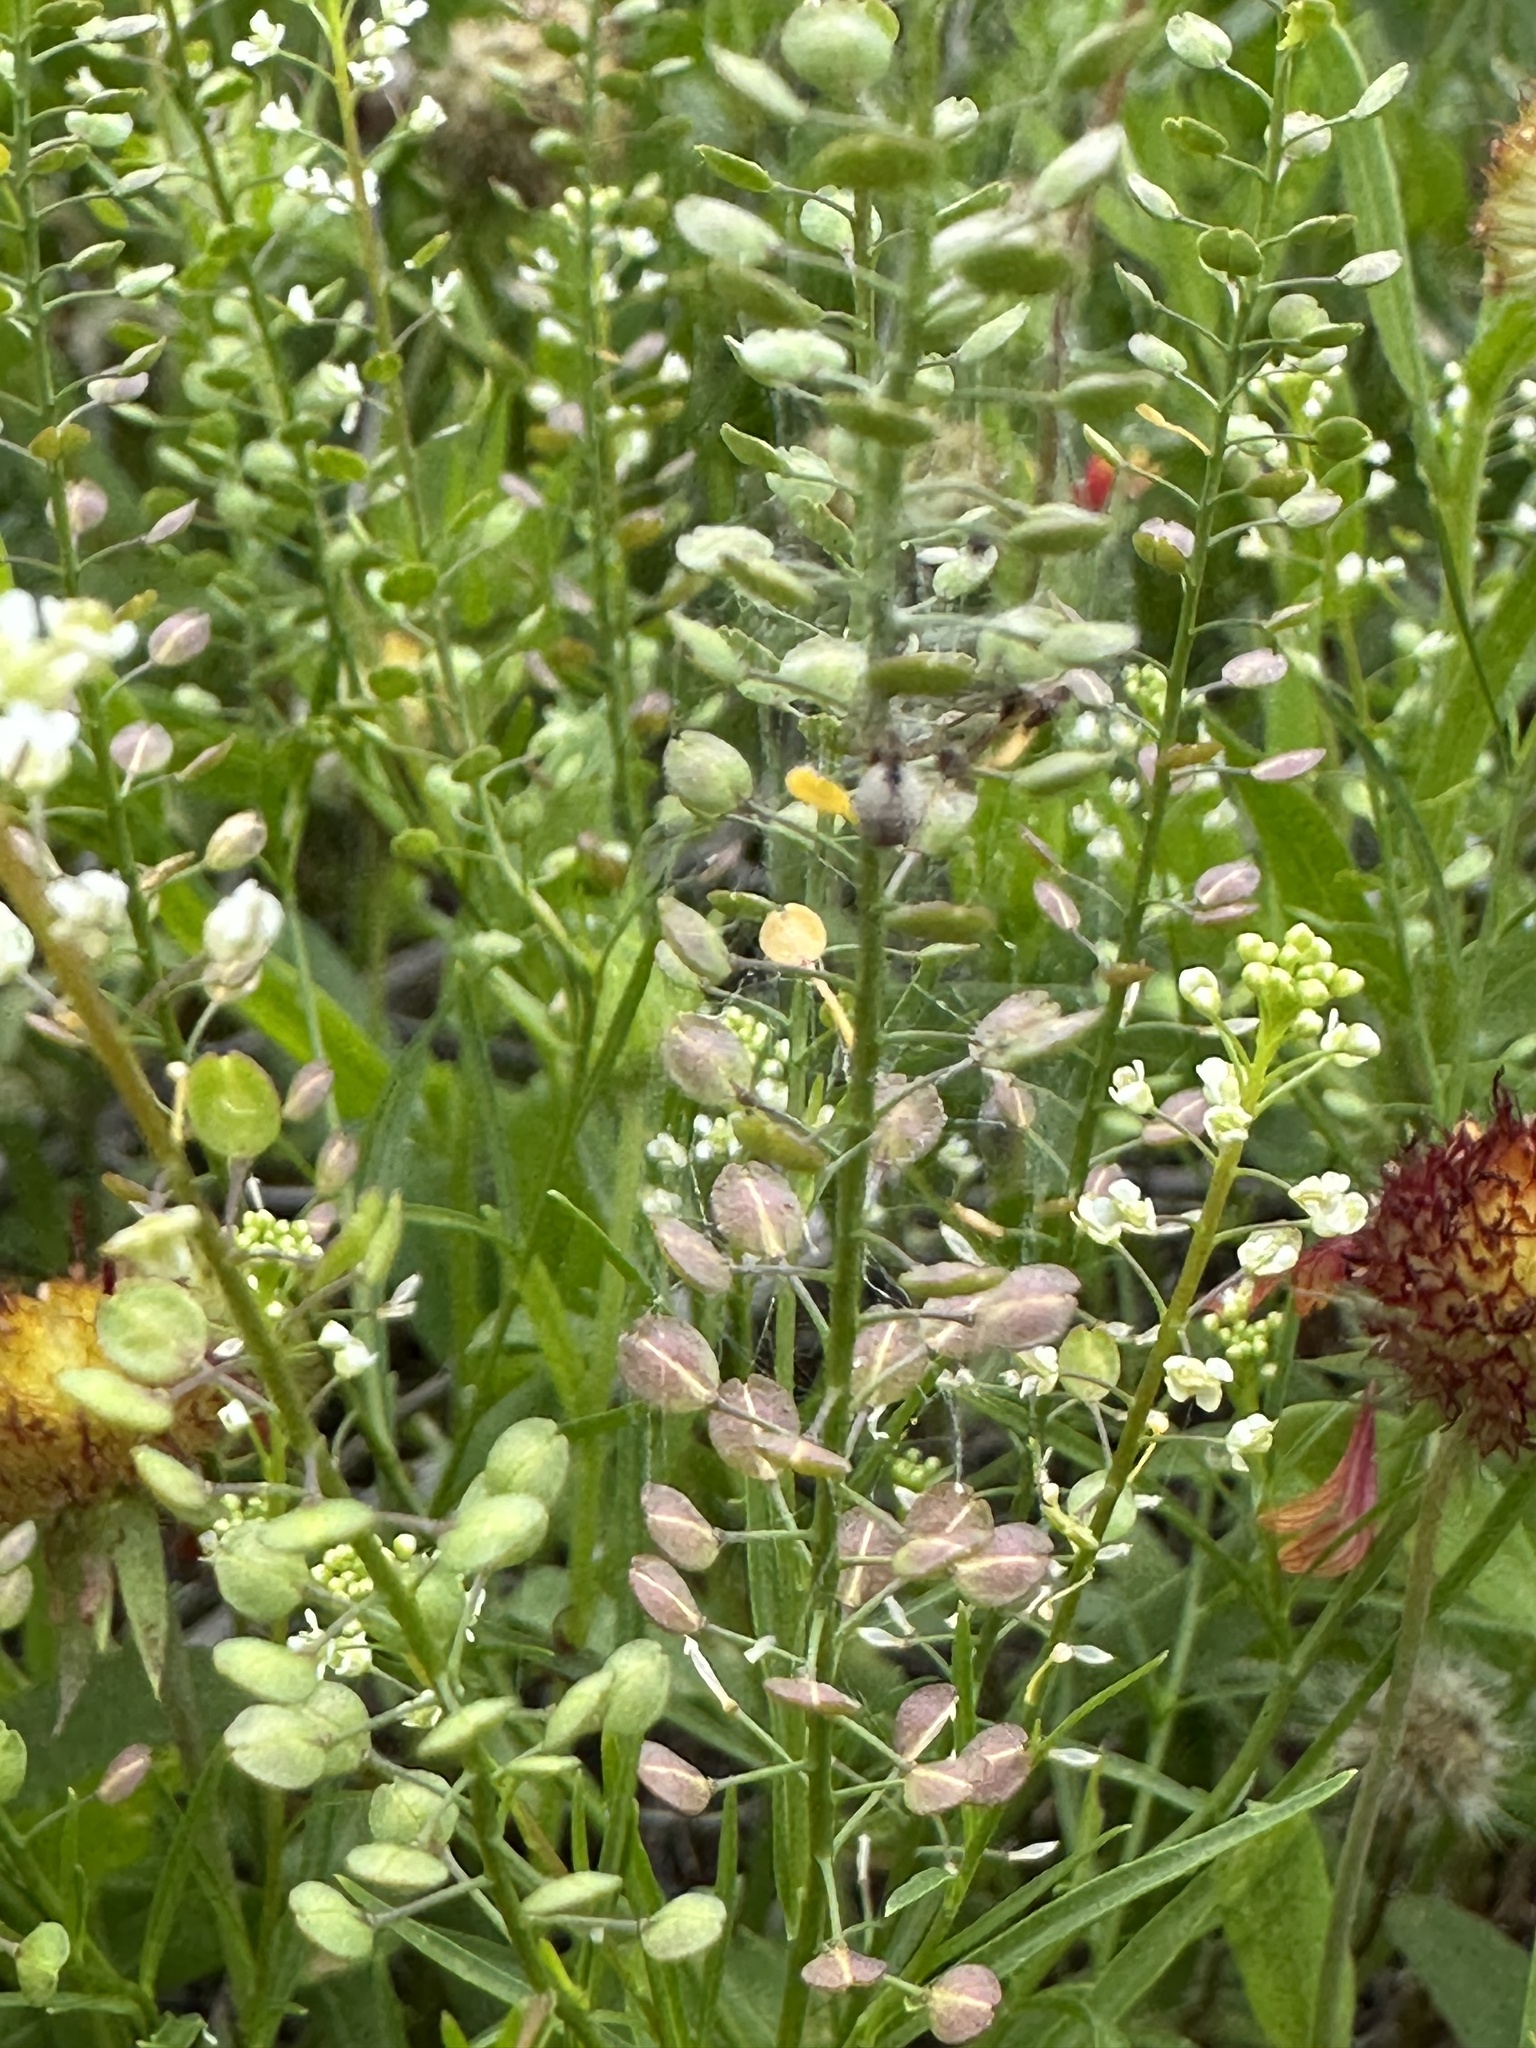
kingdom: Plantae
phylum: Tracheophyta
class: Magnoliopsida
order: Brassicales
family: Brassicaceae
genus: Lepidium
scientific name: Lepidium virginicum
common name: Least pepperwort
